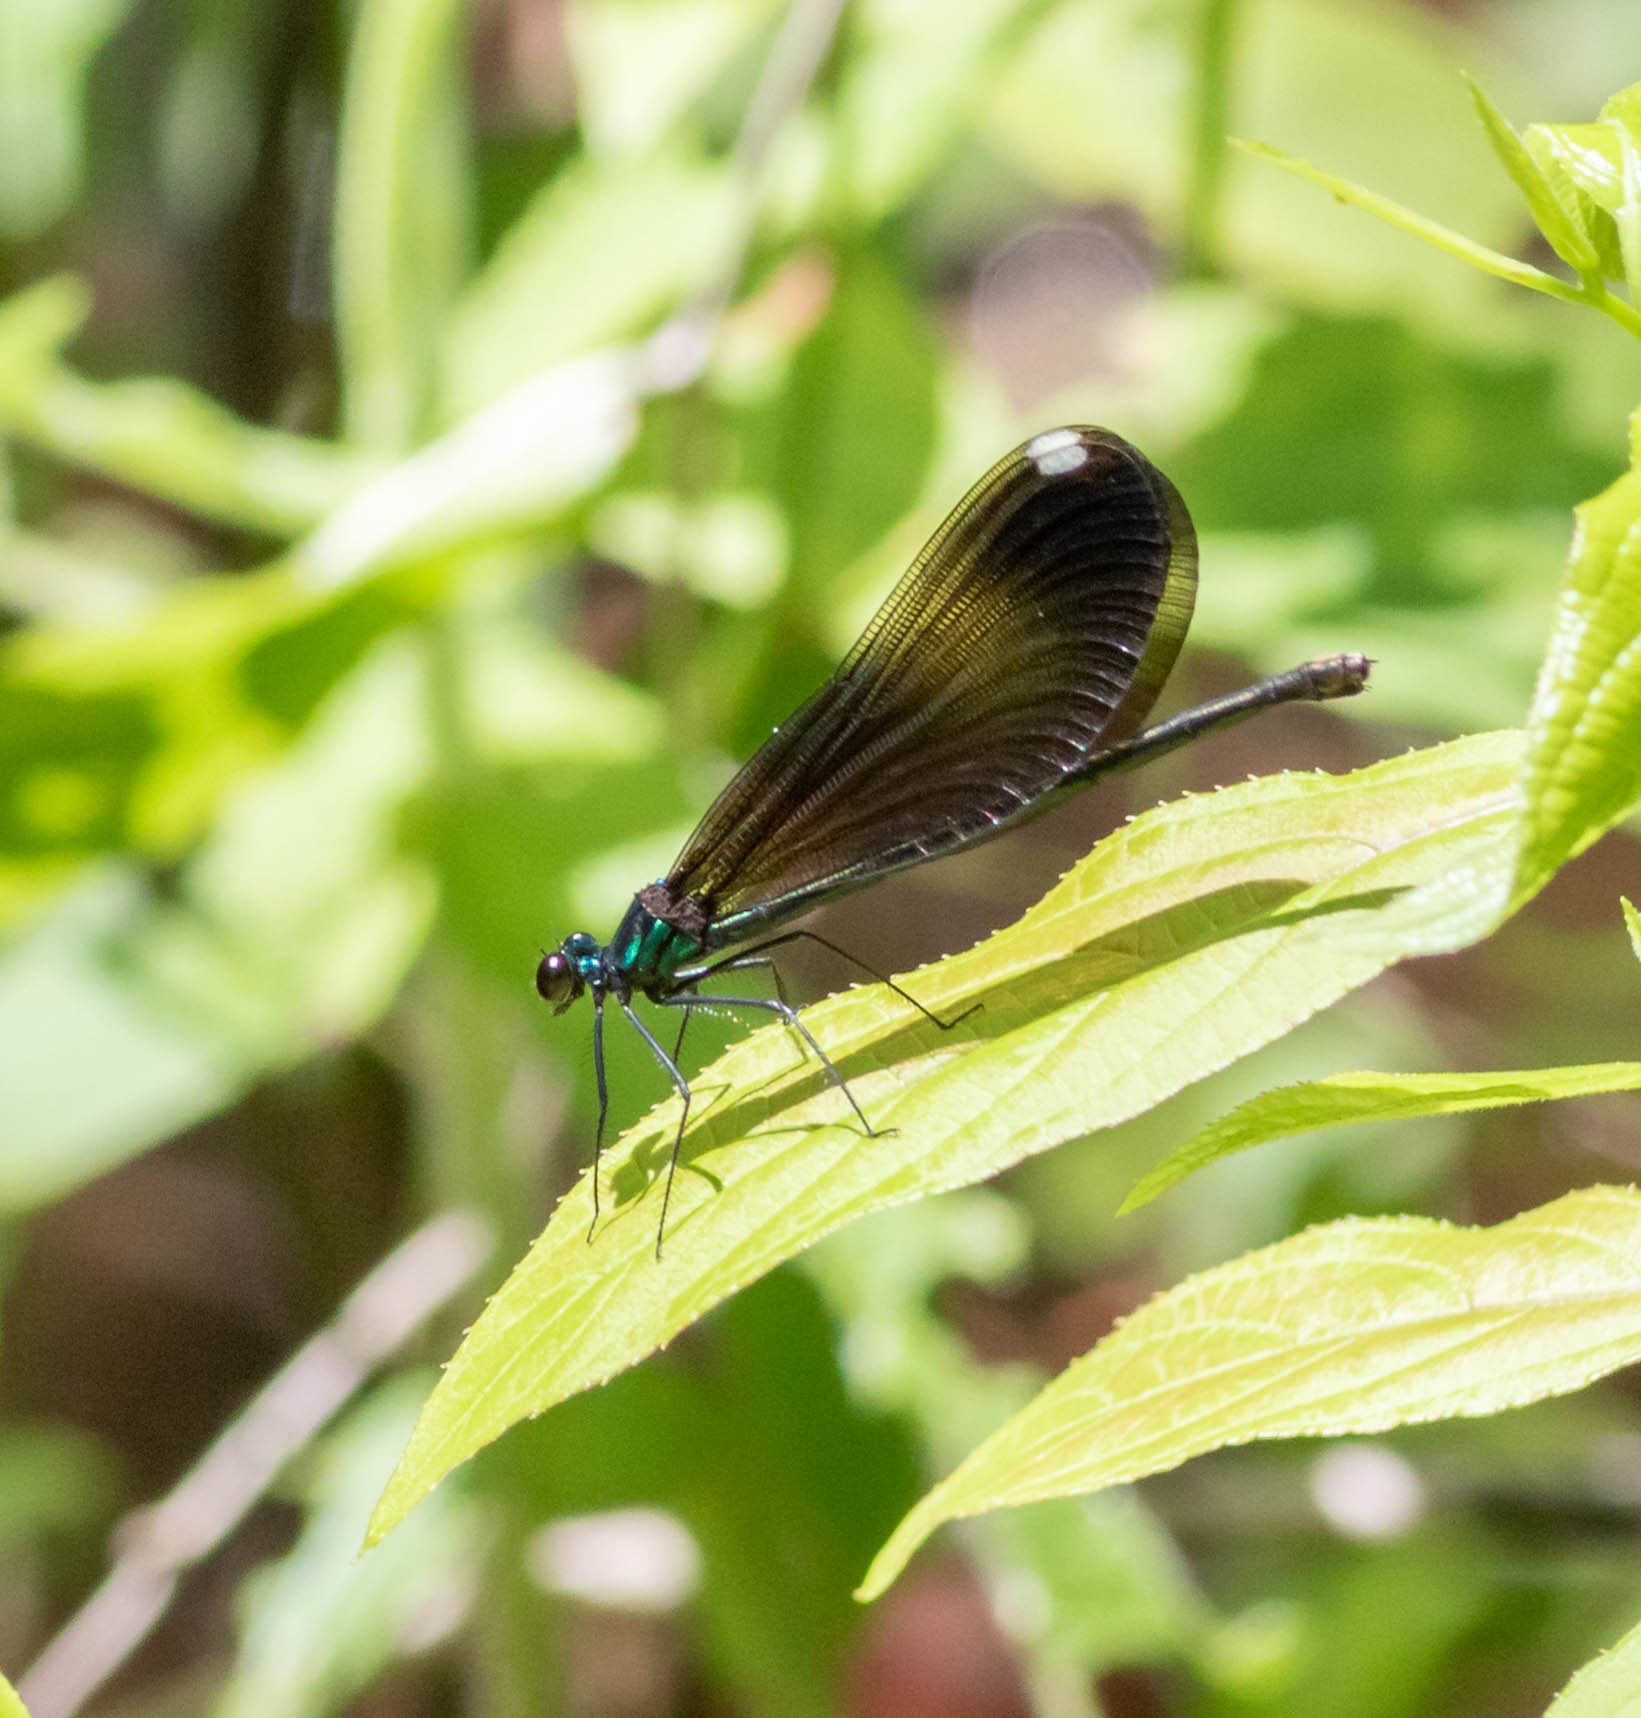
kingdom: Animalia
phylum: Arthropoda
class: Insecta
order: Odonata
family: Calopterygidae
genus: Calopteryx
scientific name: Calopteryx maculata
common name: Ebony jewelwing
